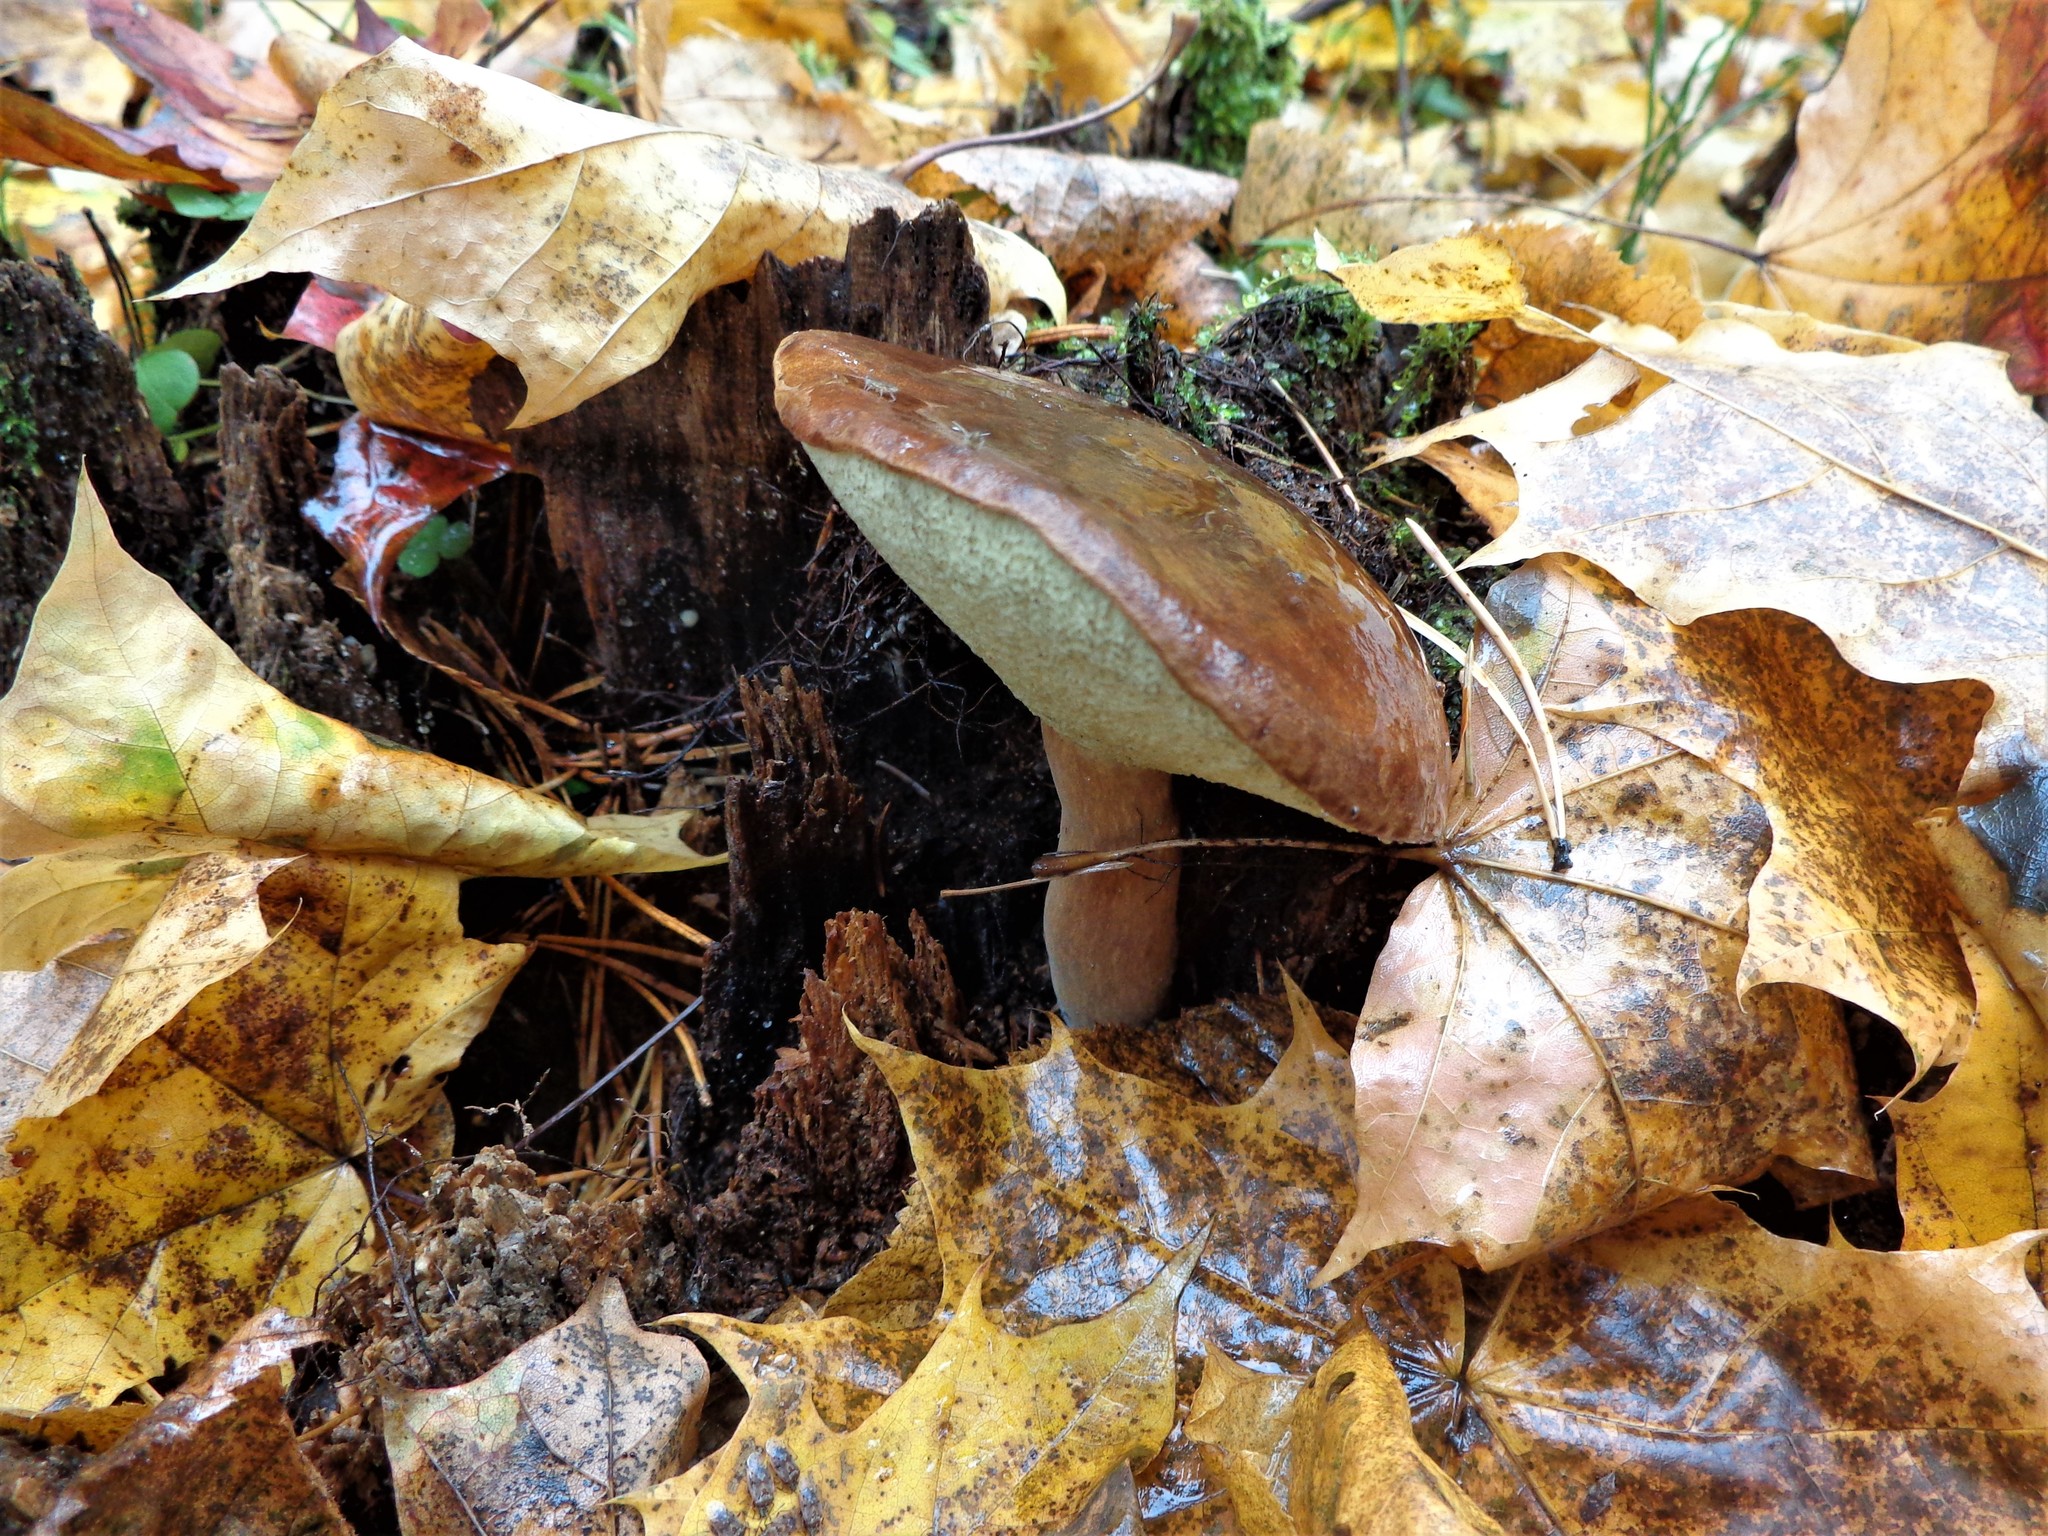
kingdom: Fungi
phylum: Basidiomycota
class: Agaricomycetes
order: Boletales
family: Boletaceae
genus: Imleria
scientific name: Imleria badia
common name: Bay bolete
